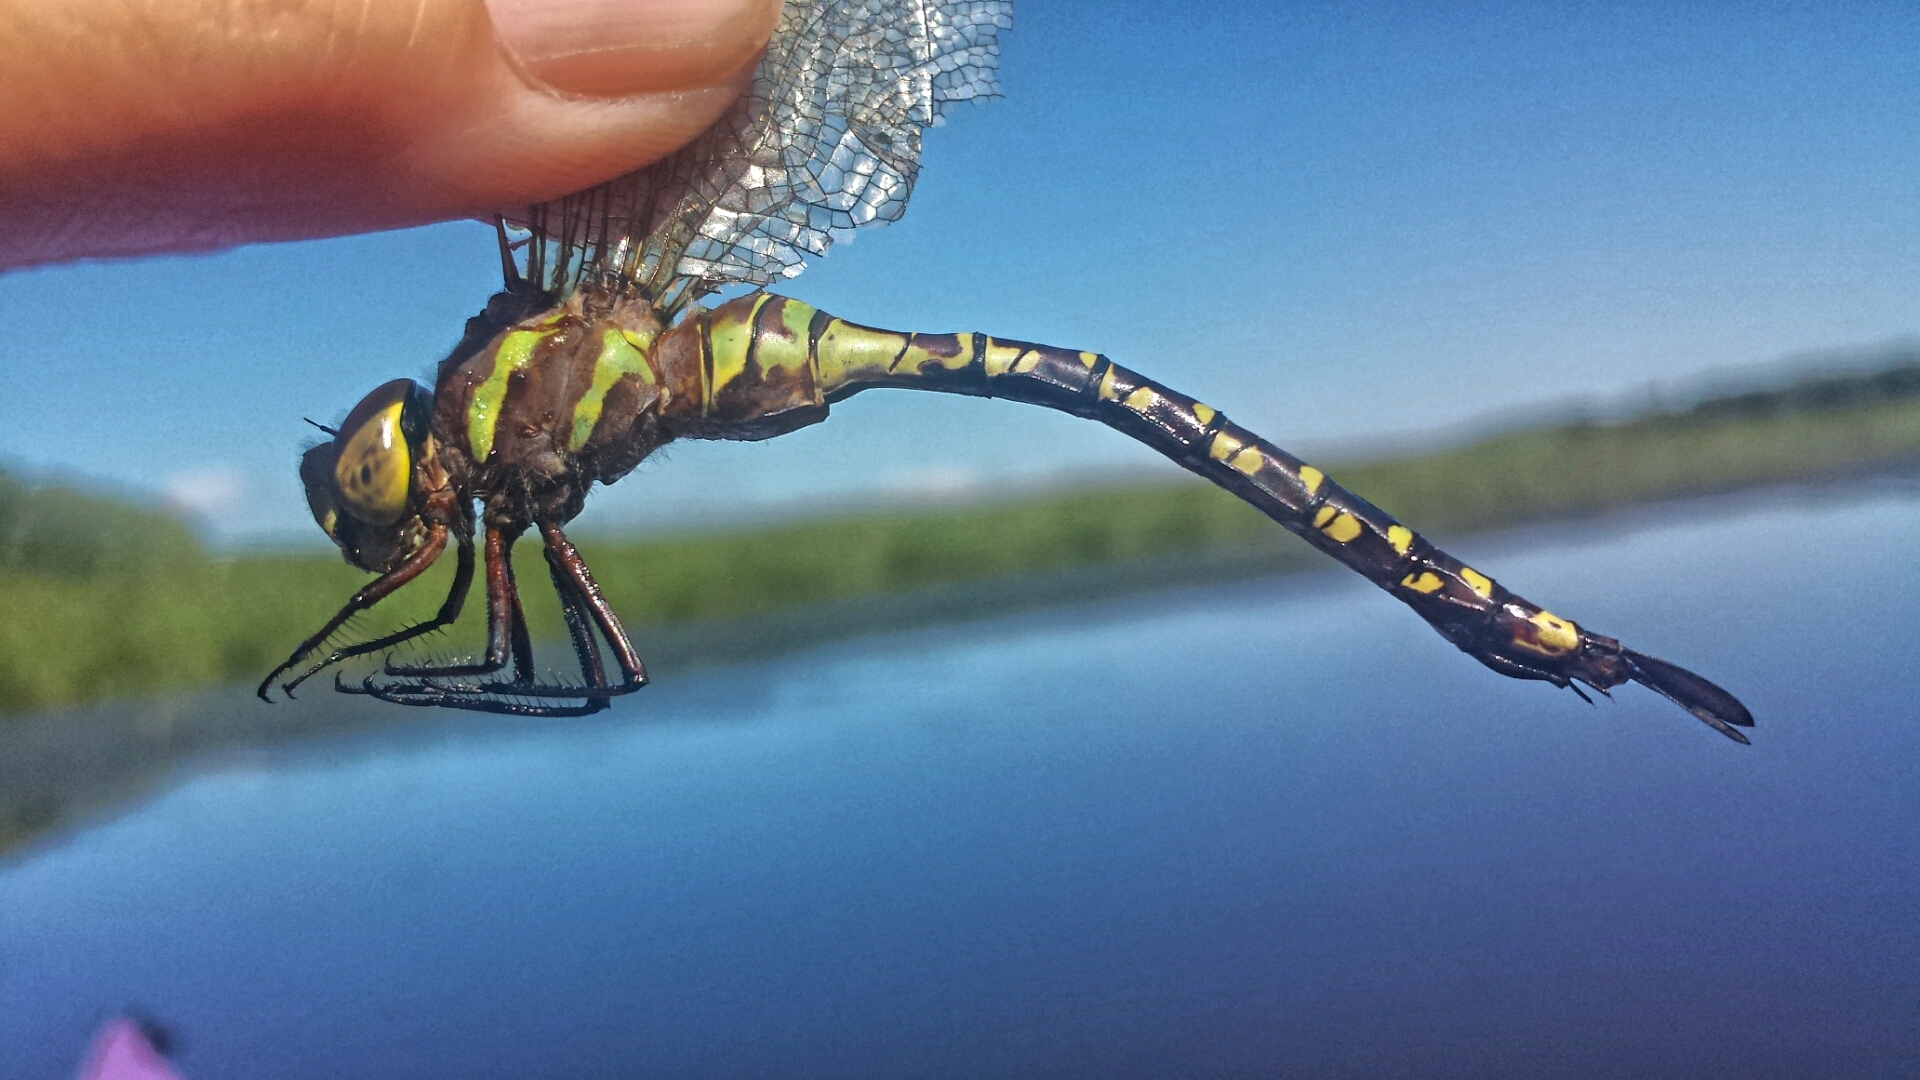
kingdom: Animalia
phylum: Arthropoda
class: Insecta
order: Odonata
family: Aeshnidae
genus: Aeshna
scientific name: Aeshna constricta
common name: Lance-tipped darner
